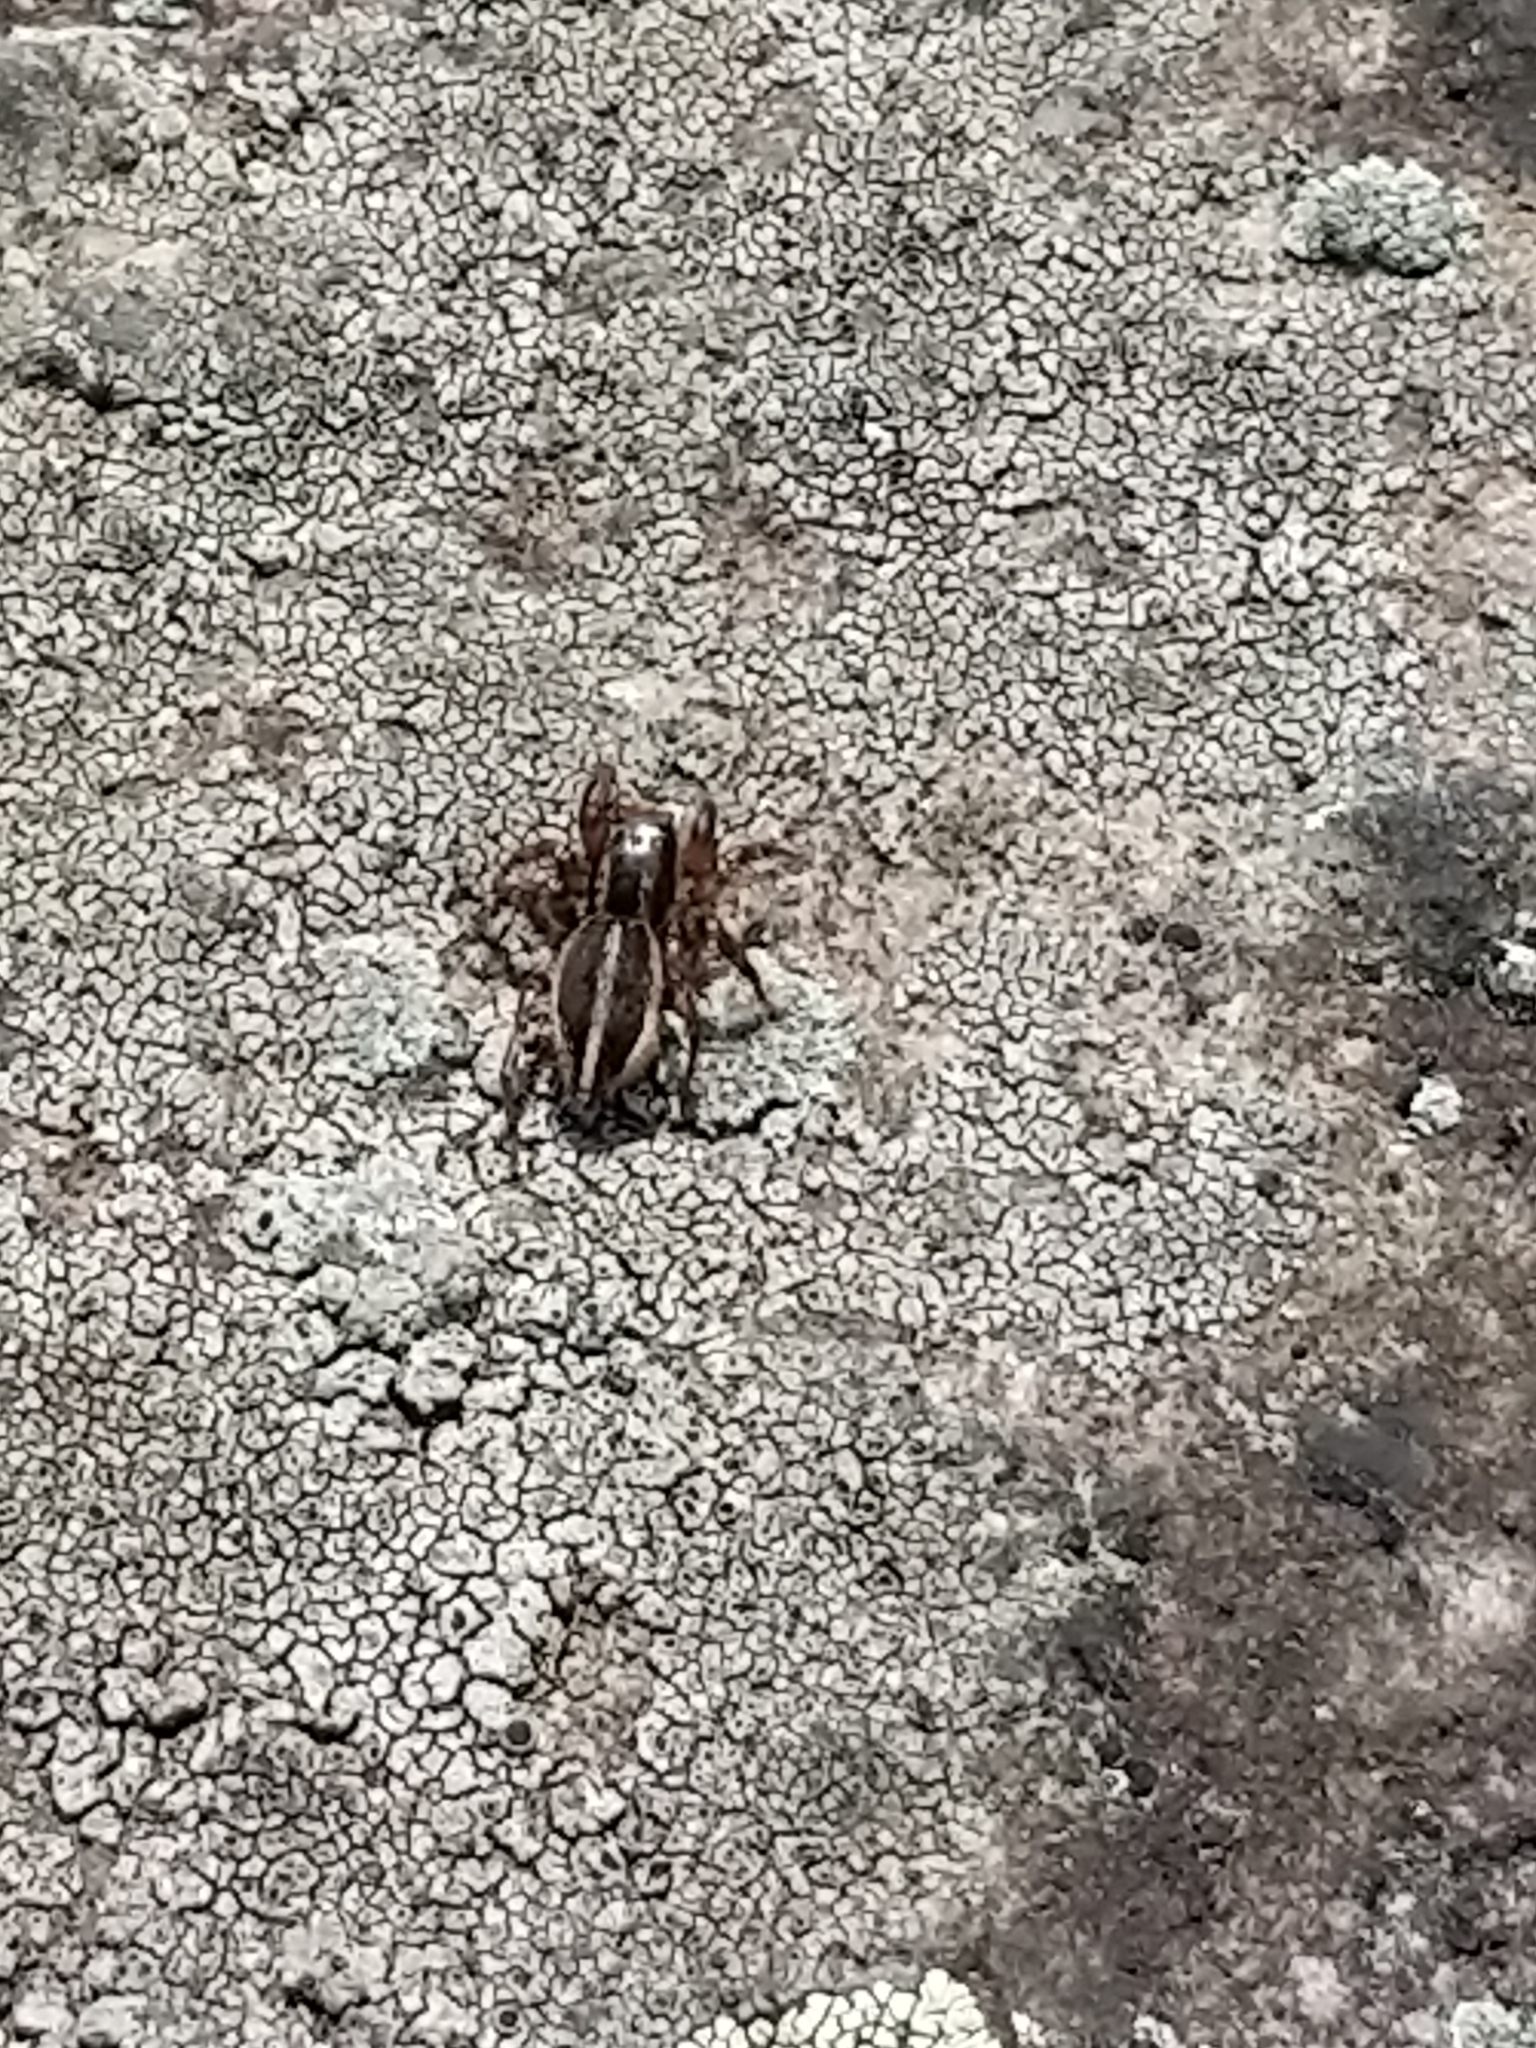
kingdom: Animalia
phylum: Arthropoda
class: Arachnida
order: Araneae
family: Salticidae
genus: Phlegra
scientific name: Phlegra hentzi
